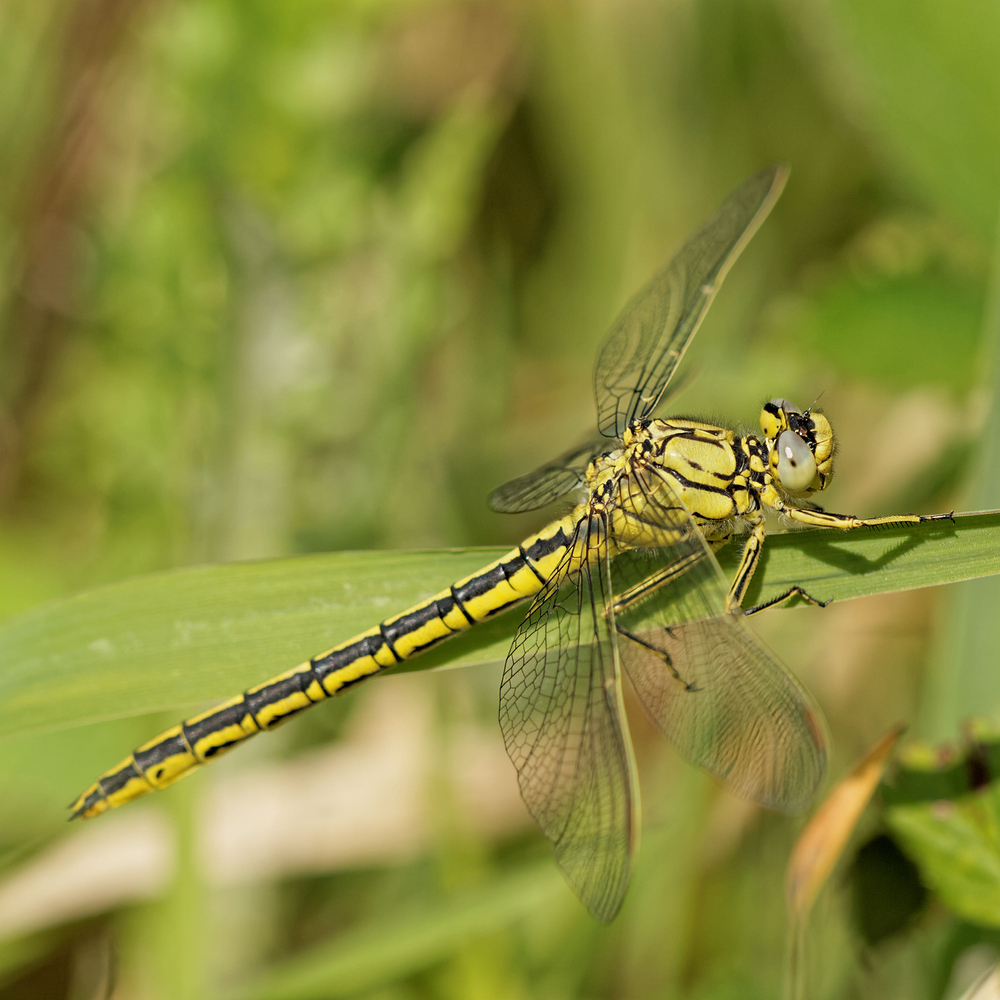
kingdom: Animalia
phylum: Arthropoda
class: Insecta
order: Odonata
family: Gomphidae
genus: Gomphus
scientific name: Gomphus pulchellus
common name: Western clubtail
